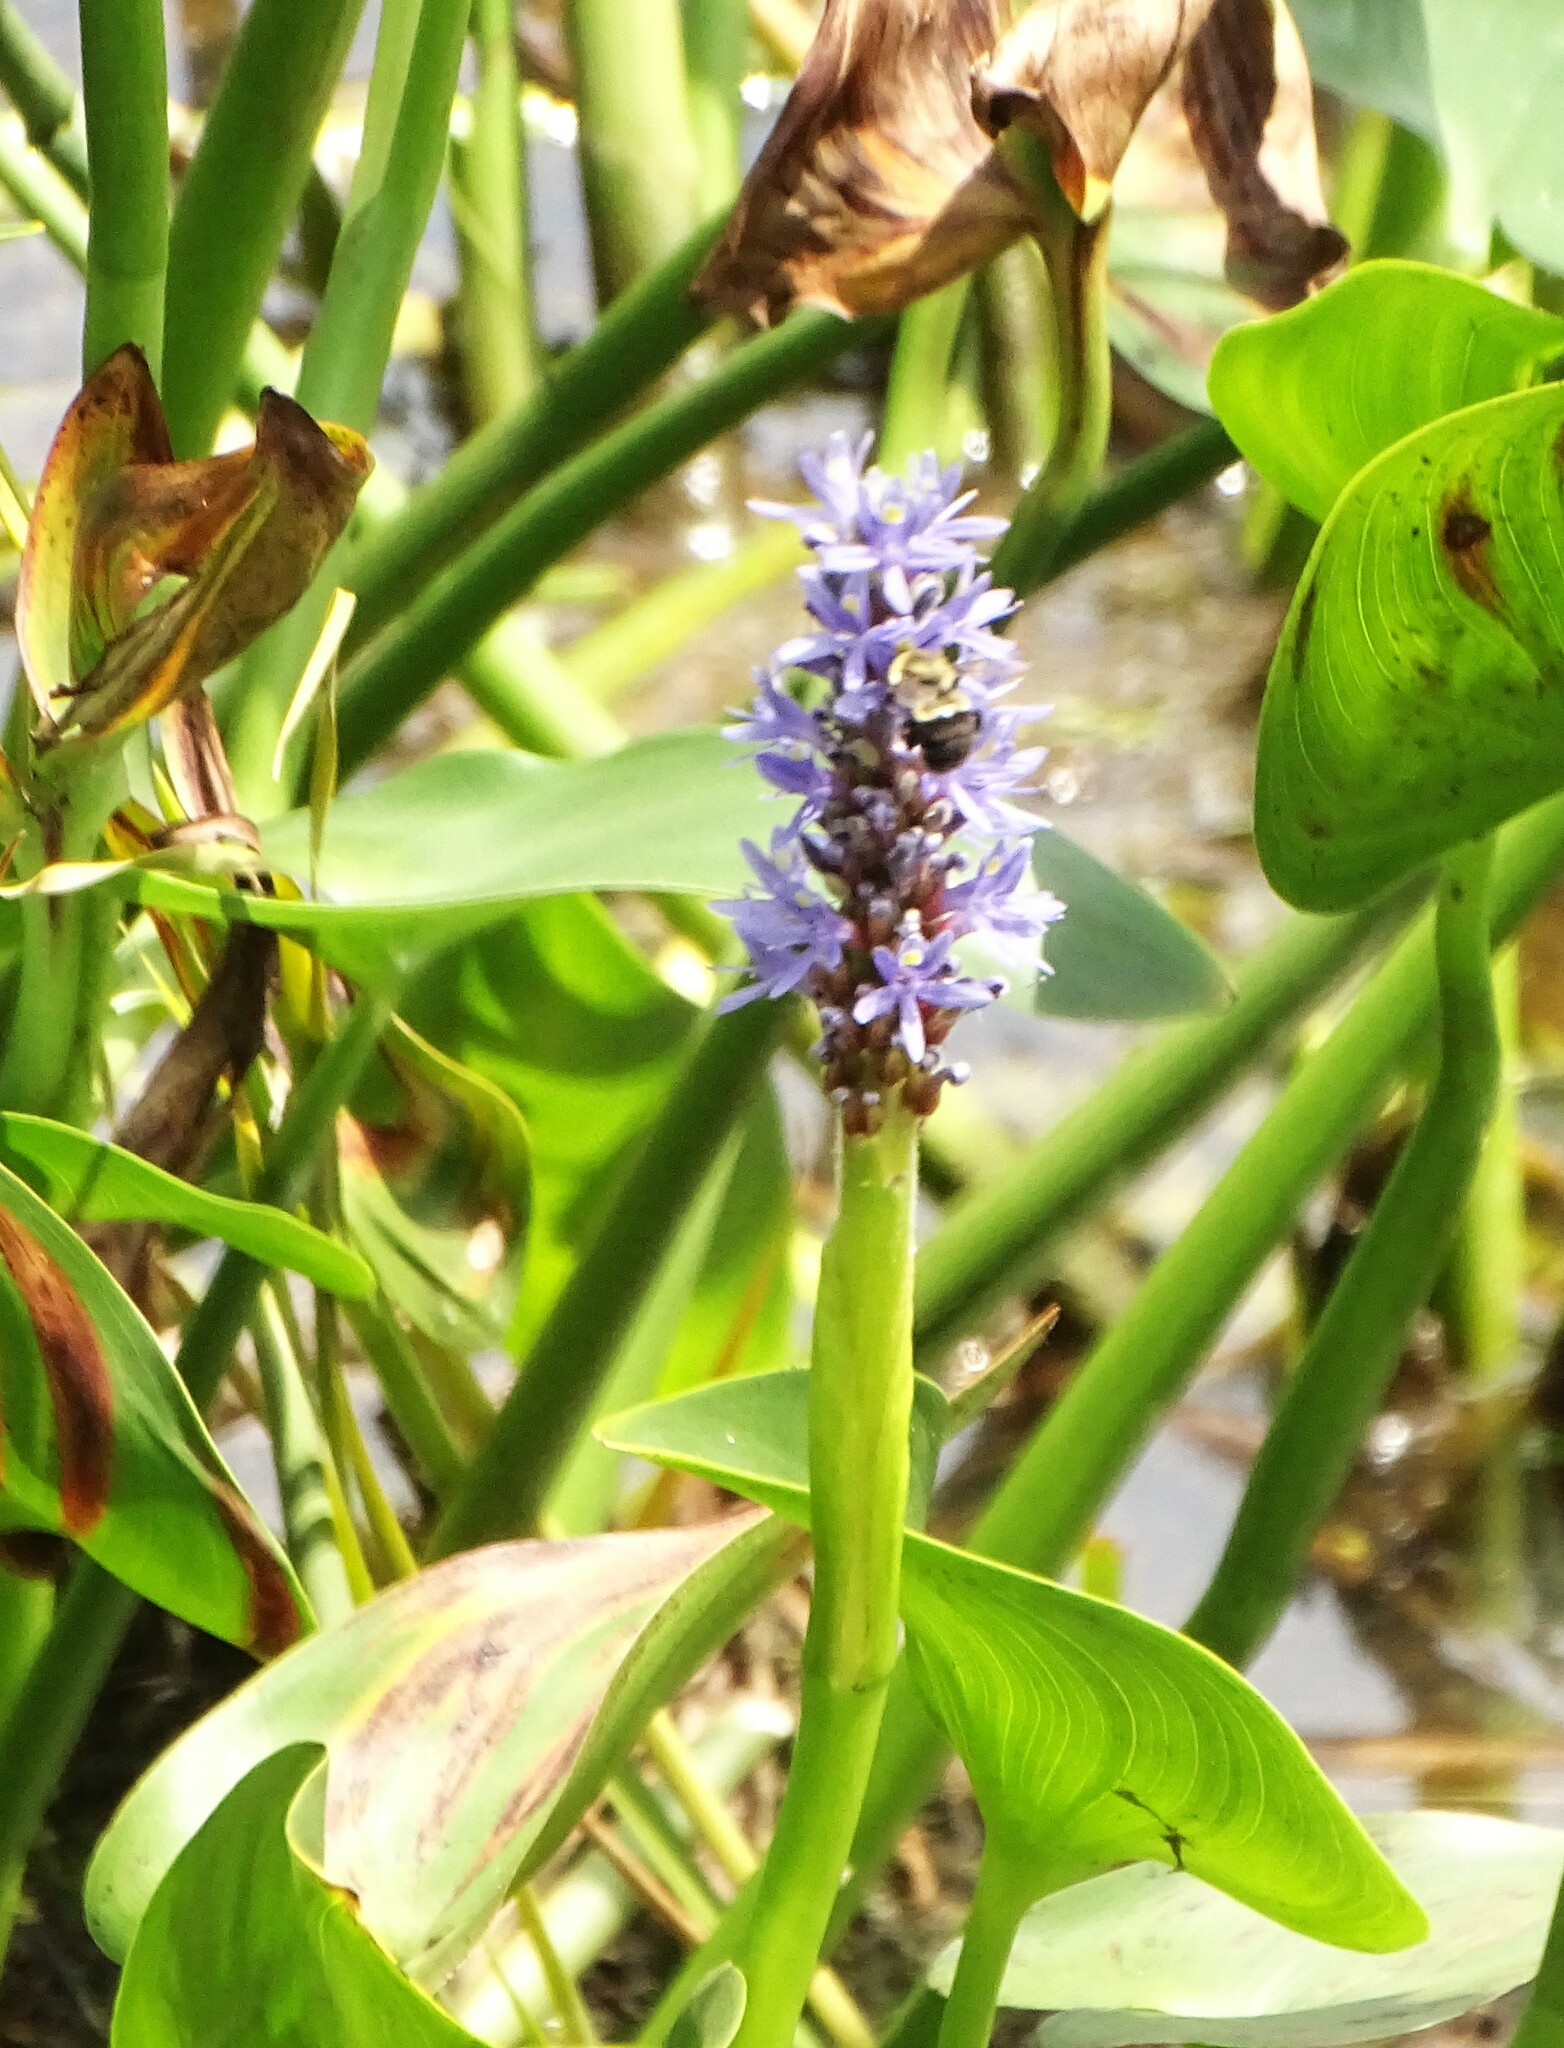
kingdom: Plantae
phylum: Tracheophyta
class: Liliopsida
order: Commelinales
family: Pontederiaceae
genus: Pontederia
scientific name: Pontederia cordata
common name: Pickerelweed
